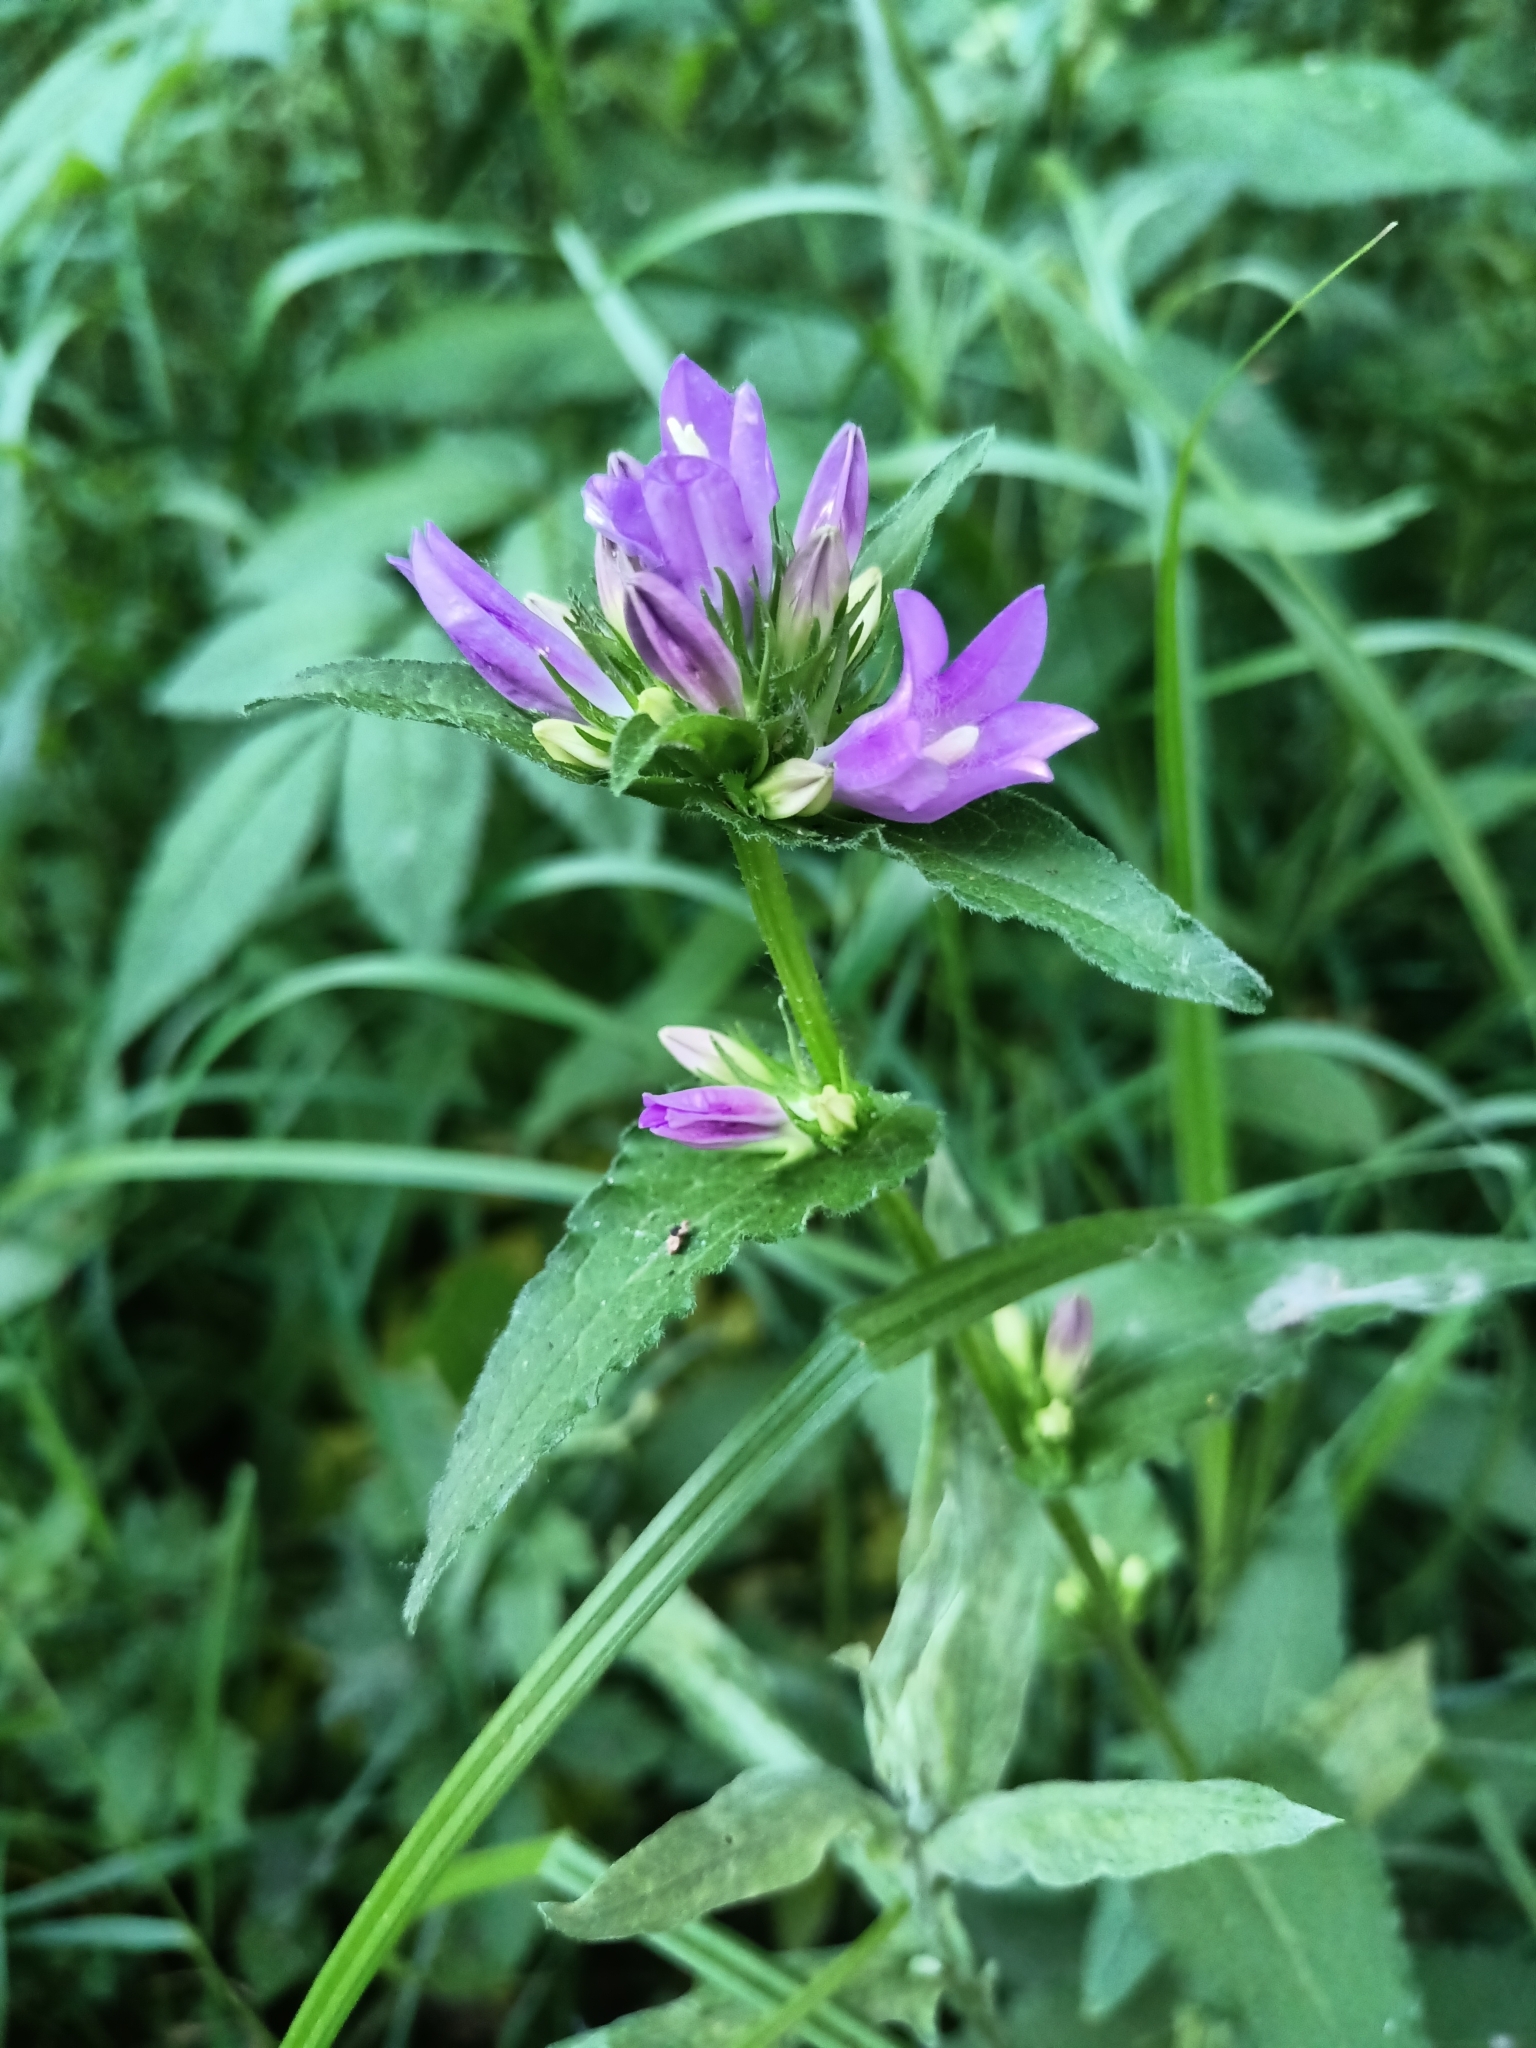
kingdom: Plantae
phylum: Tracheophyta
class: Magnoliopsida
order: Asterales
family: Campanulaceae
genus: Campanula
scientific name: Campanula glomerata
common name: Clustered bellflower
